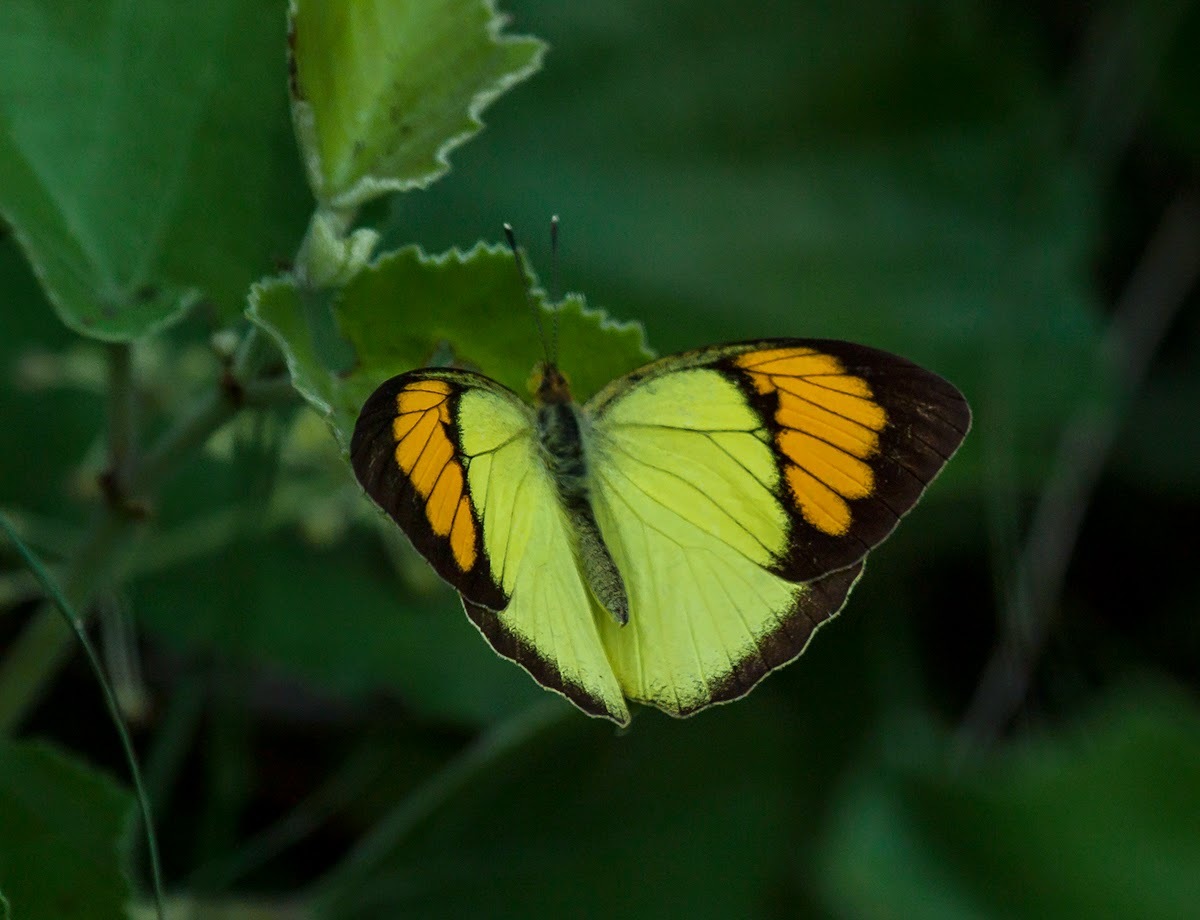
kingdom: Animalia
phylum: Arthropoda
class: Insecta
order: Lepidoptera
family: Pieridae
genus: Ixias
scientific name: Ixias pyrene
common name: Yellow orange tip
